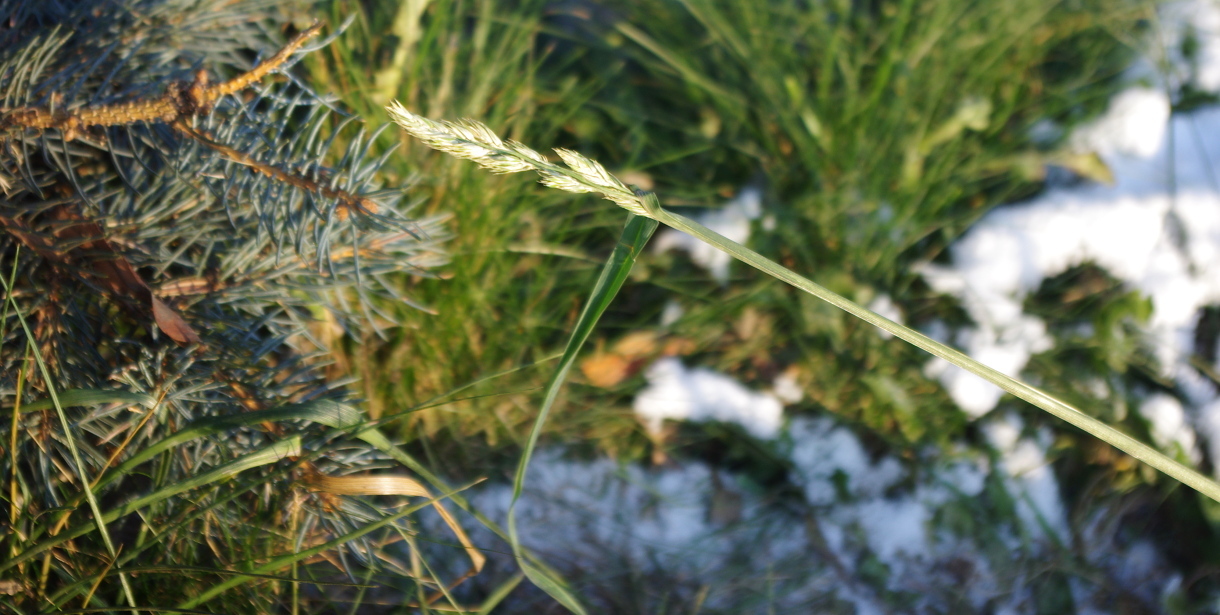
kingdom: Plantae
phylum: Tracheophyta
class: Liliopsida
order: Poales
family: Poaceae
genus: Dactylis
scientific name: Dactylis glomerata
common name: Orchardgrass
